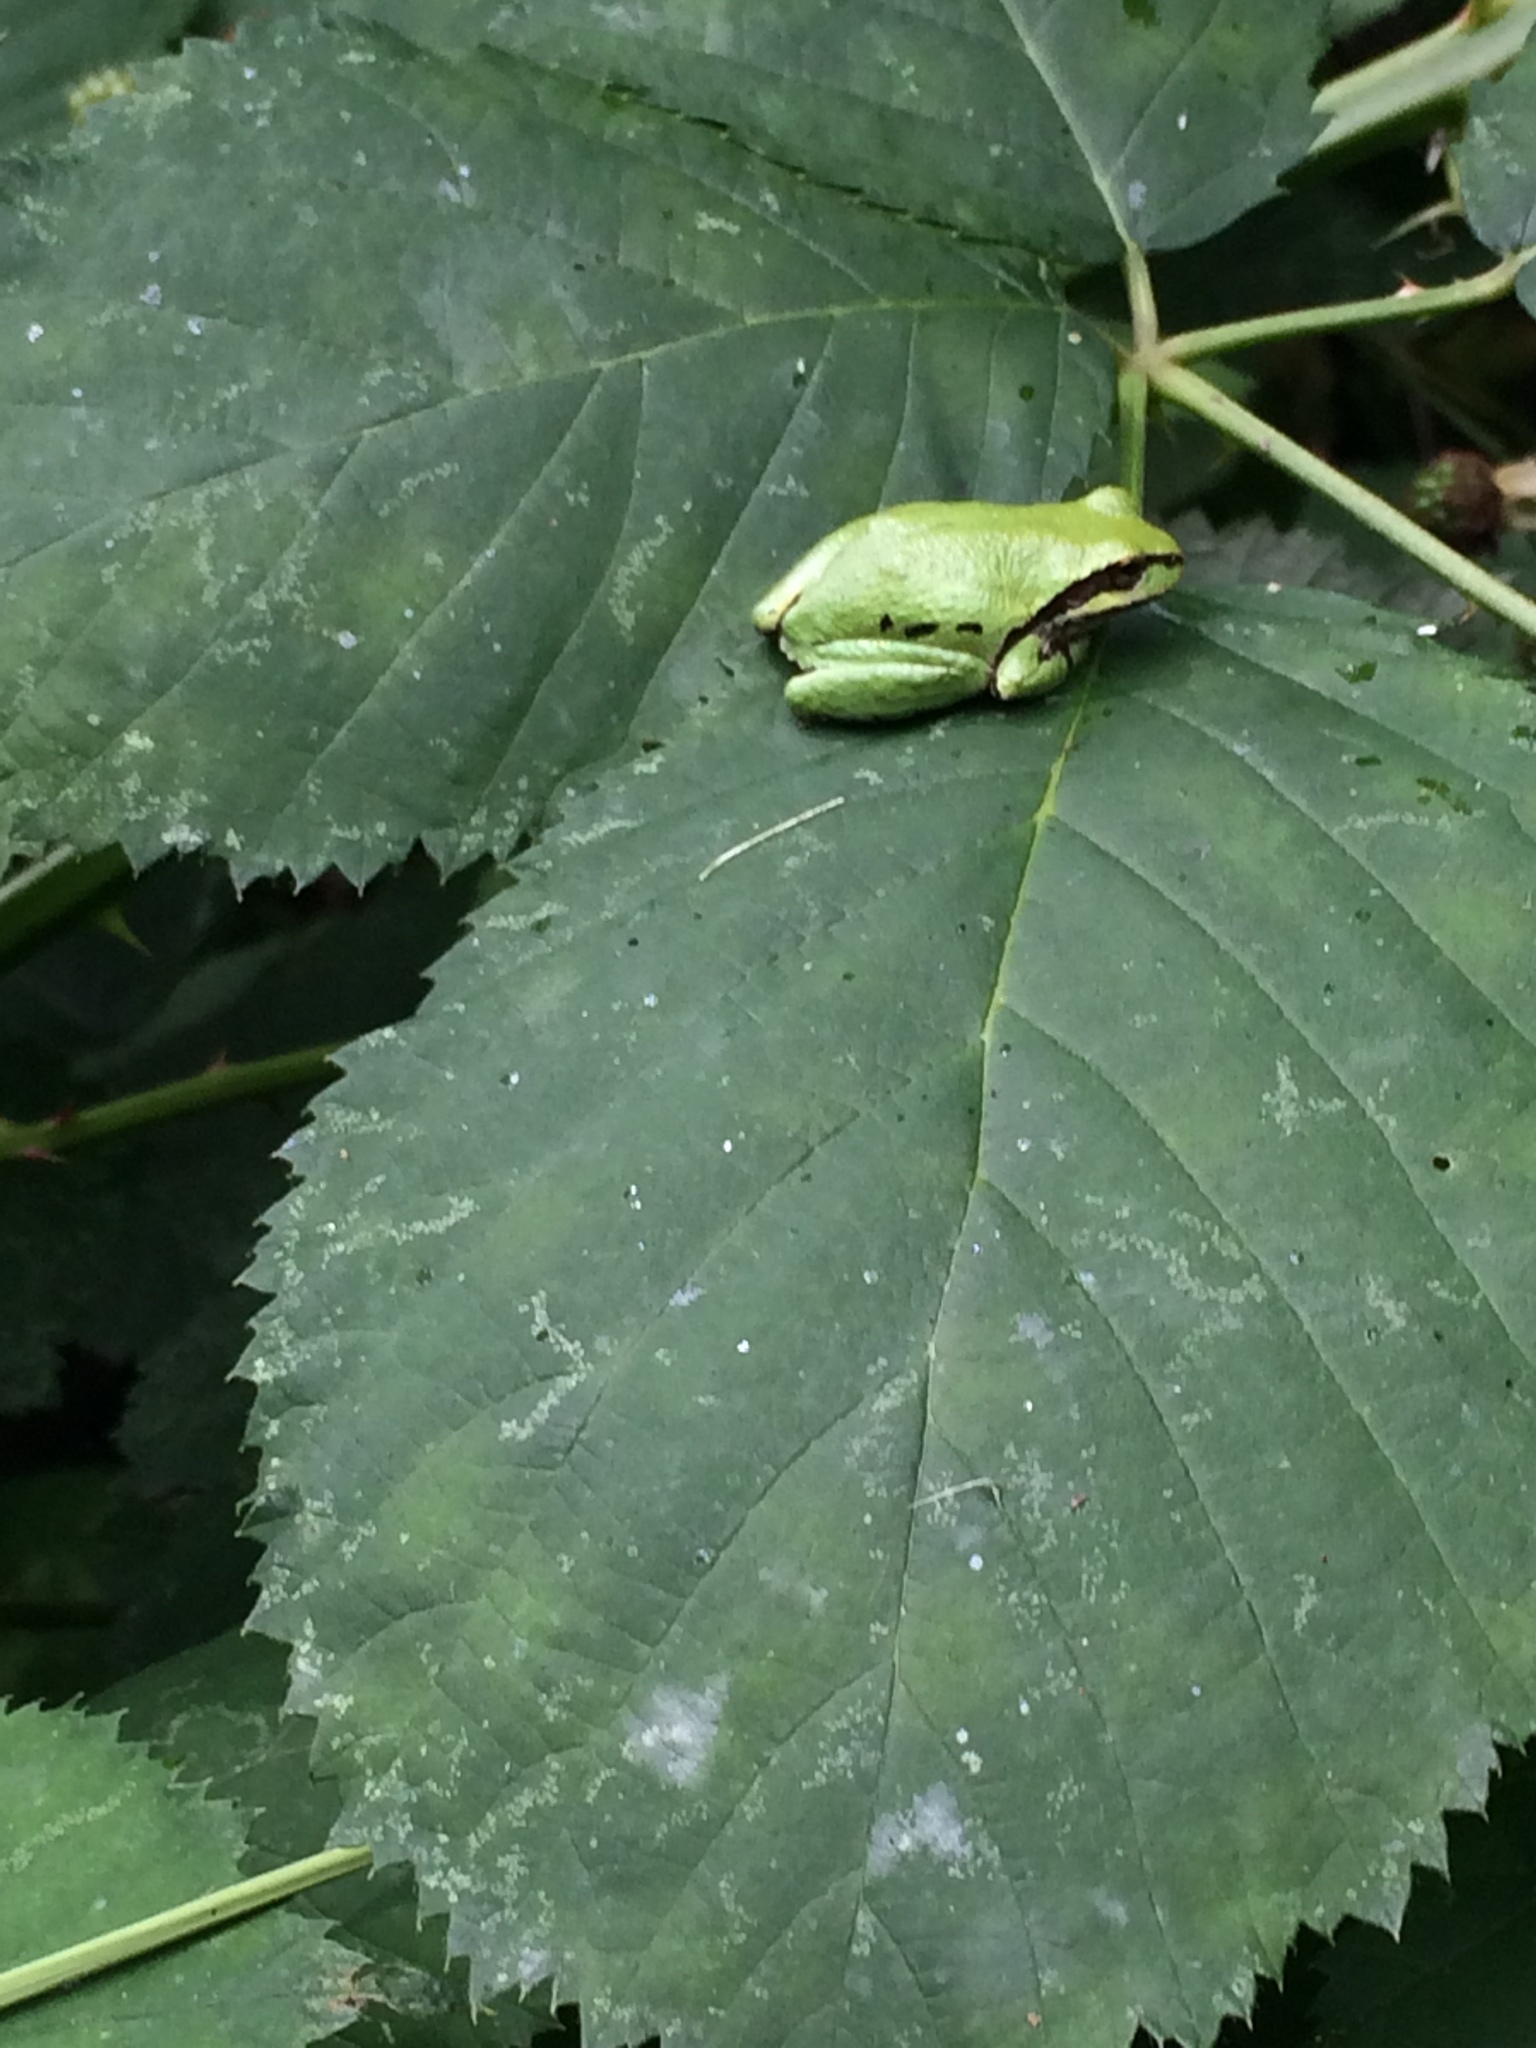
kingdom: Animalia
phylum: Chordata
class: Amphibia
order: Anura
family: Hylidae
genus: Pseudacris
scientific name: Pseudacris regilla
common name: Pacific chorus frog
